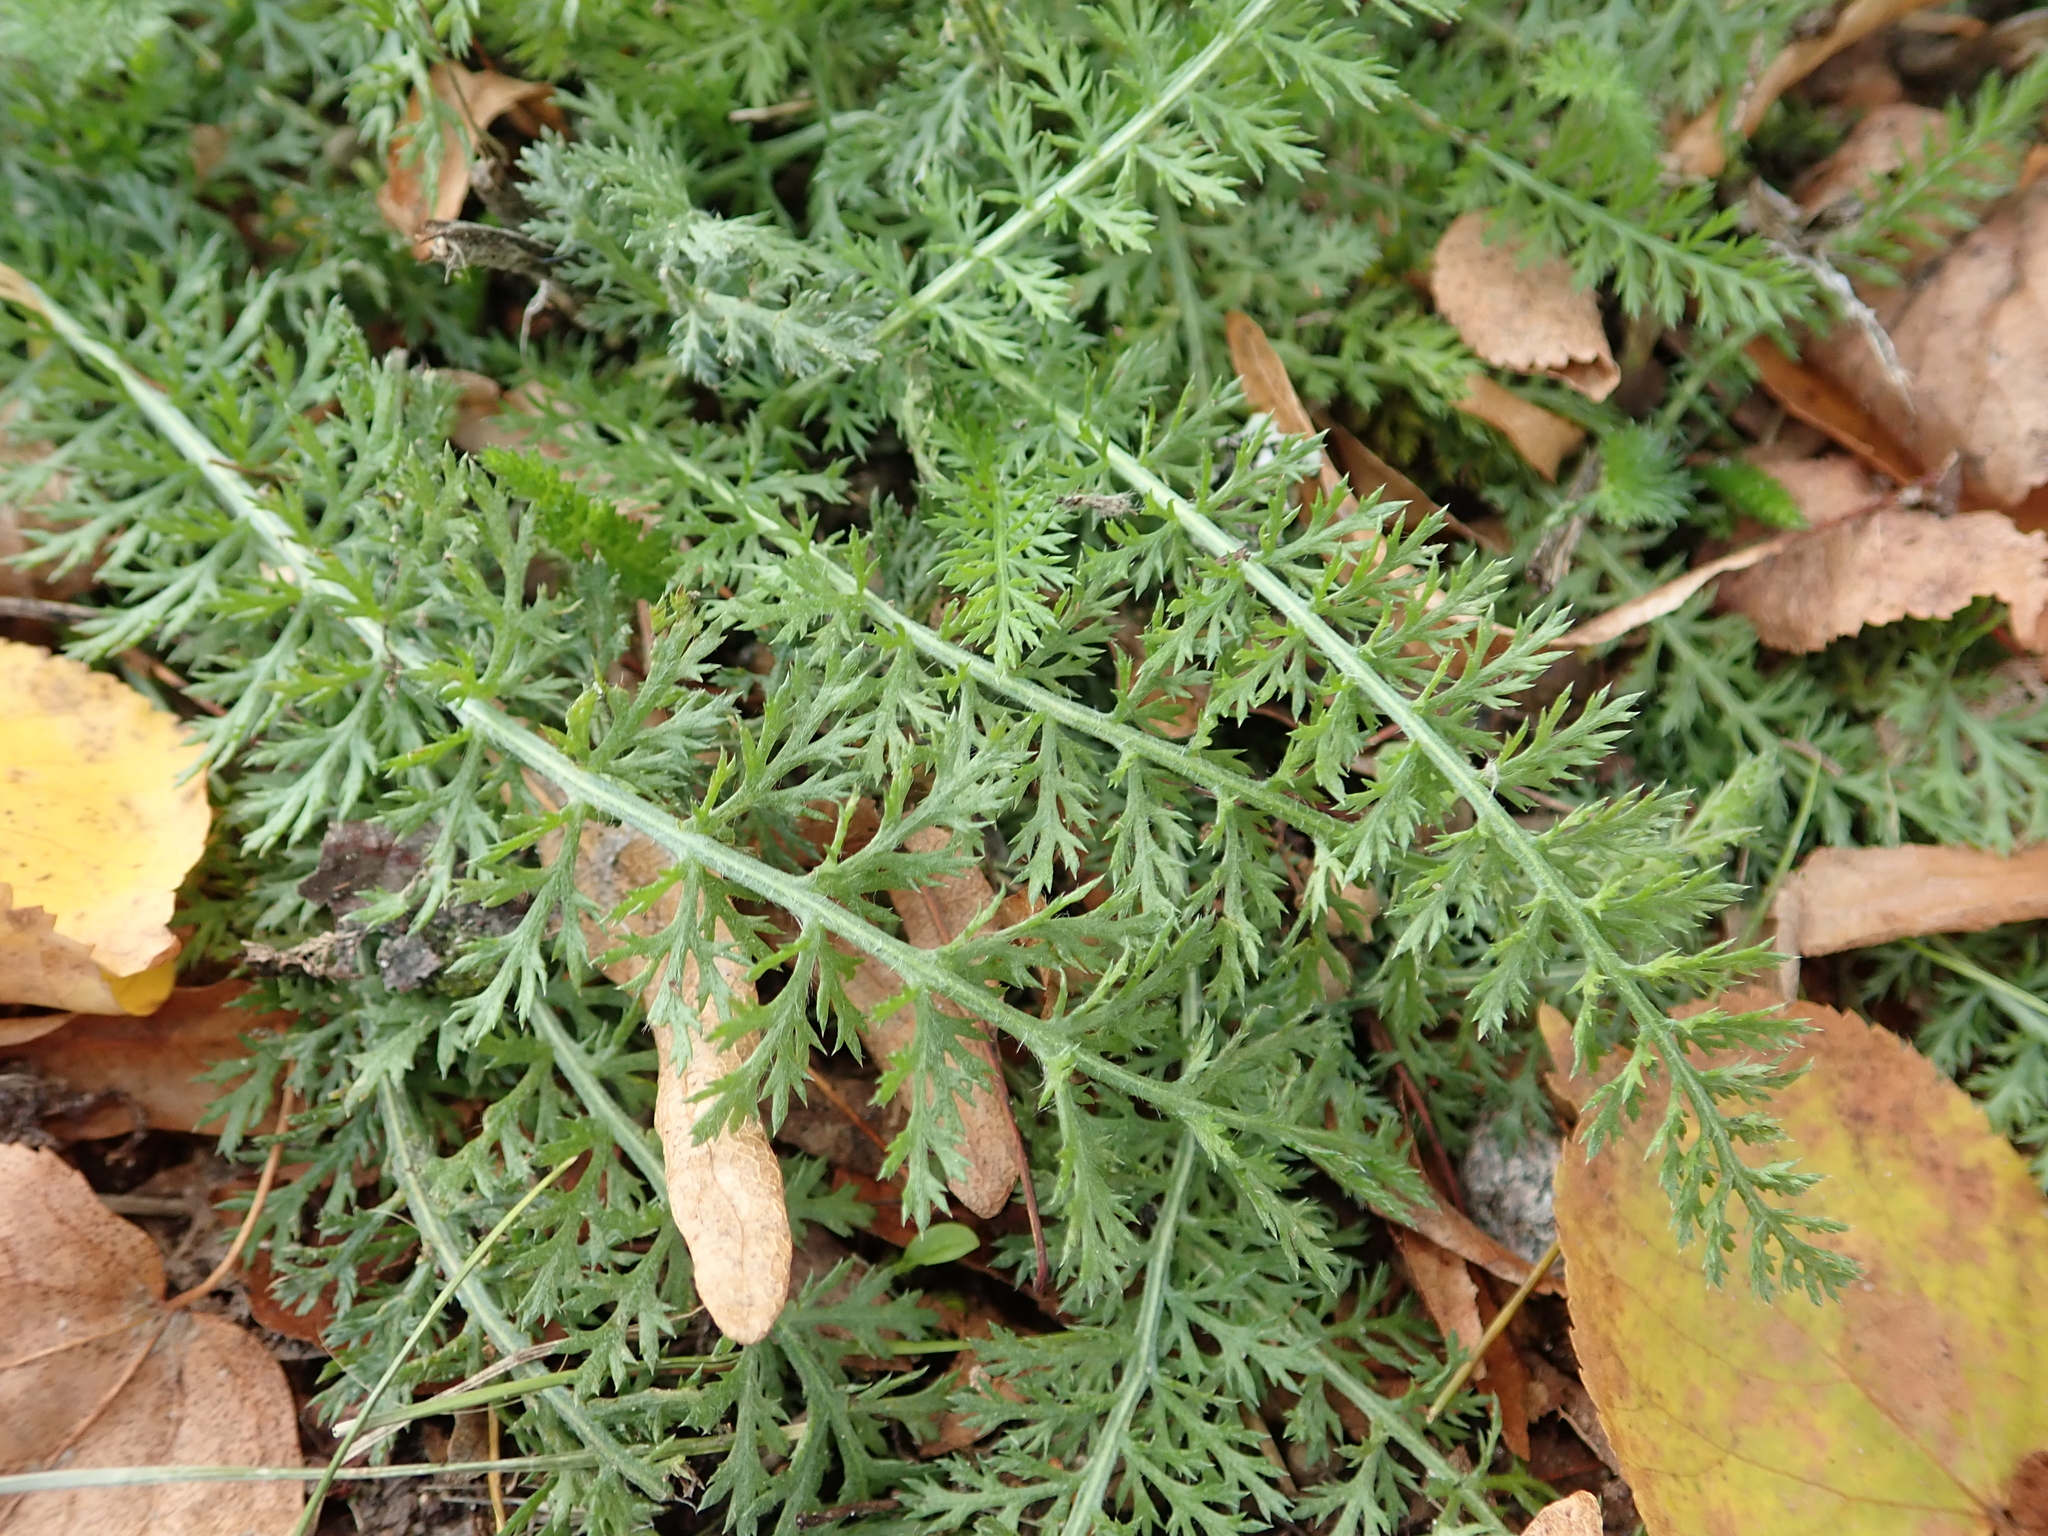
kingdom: Plantae
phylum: Tracheophyta
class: Magnoliopsida
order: Asterales
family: Asteraceae
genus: Achillea
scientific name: Achillea millefolium
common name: Yarrow
